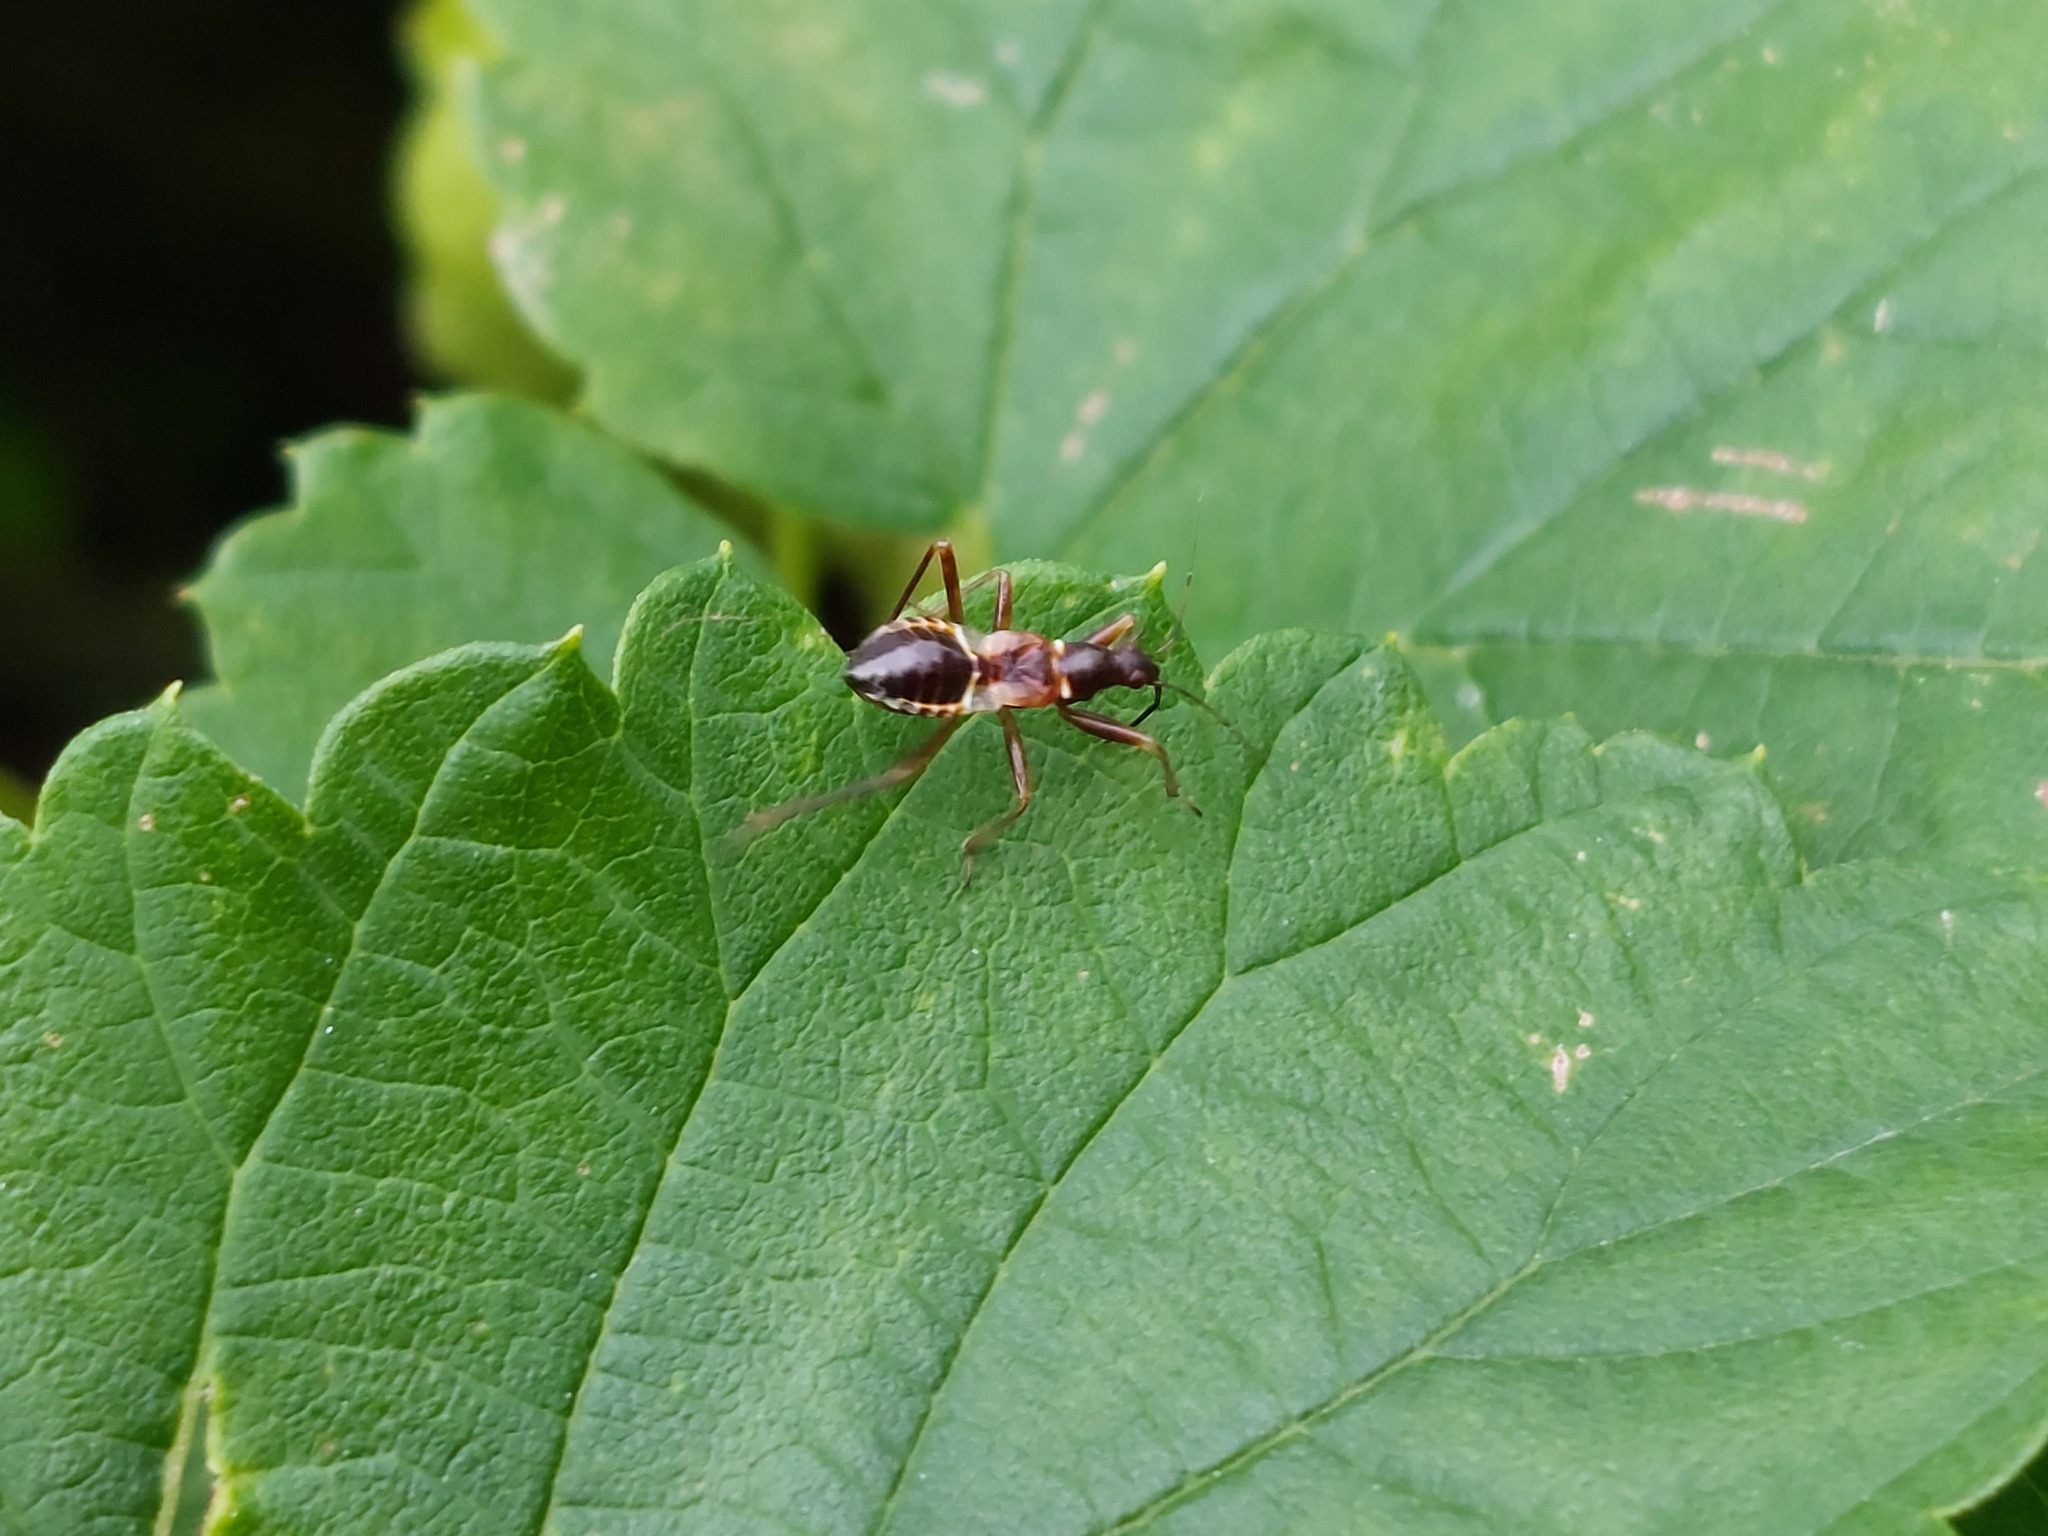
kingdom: Animalia
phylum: Arthropoda
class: Insecta
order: Hemiptera
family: Nabidae
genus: Himacerus
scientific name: Himacerus mirmicoides
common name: Ant damsel bug
